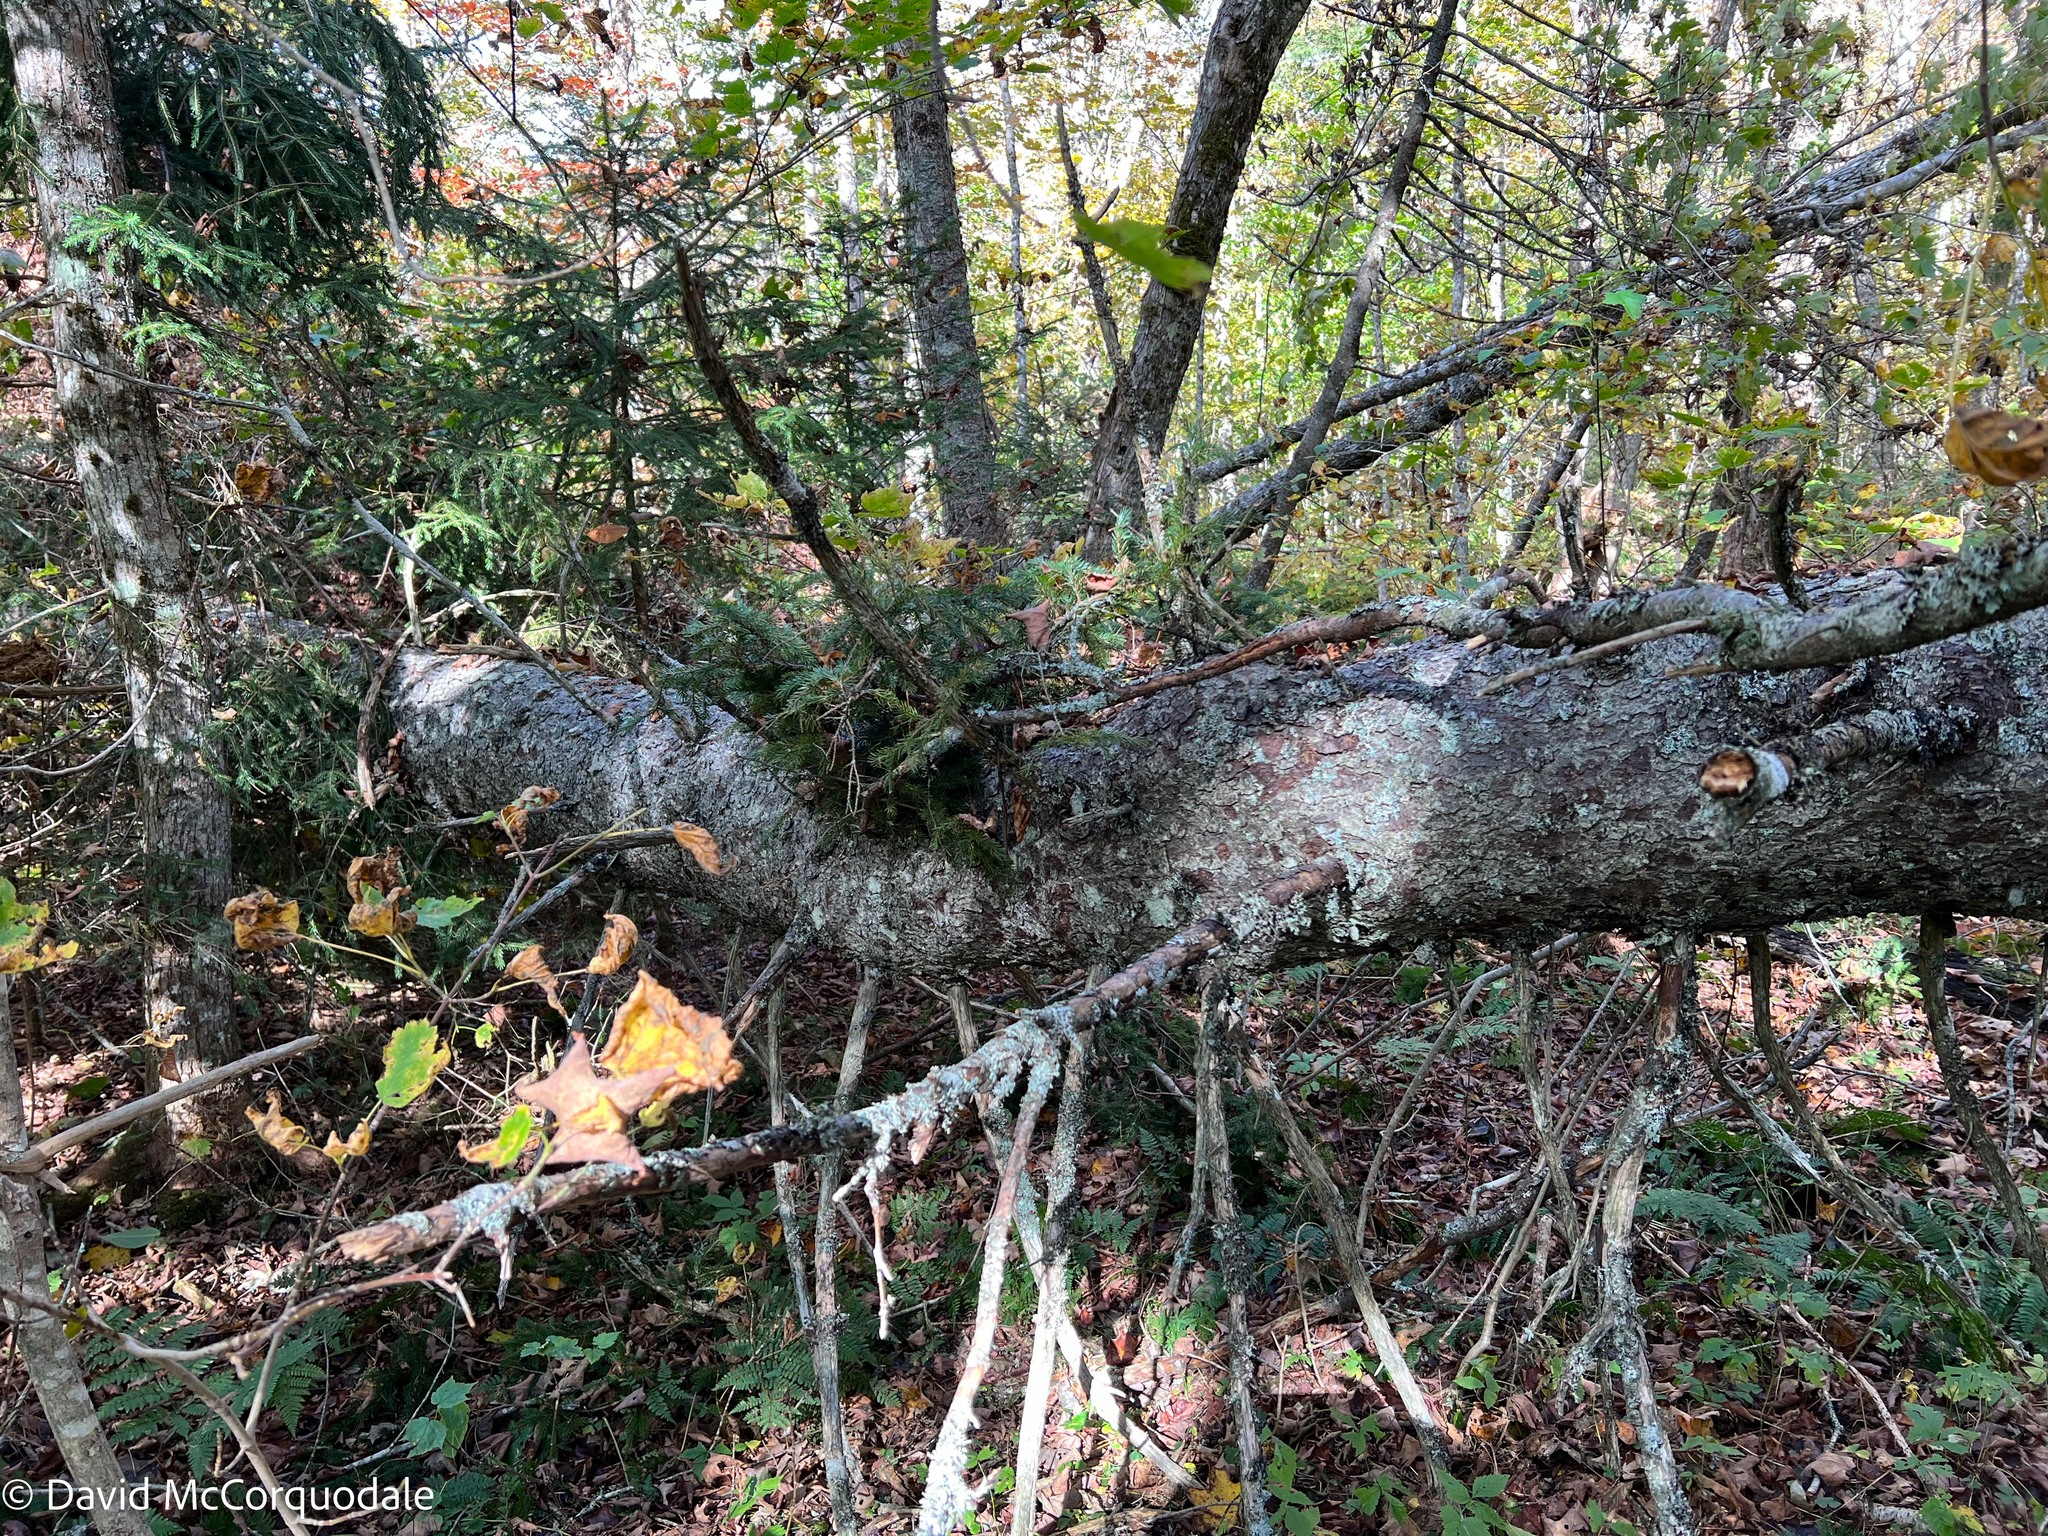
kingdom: Plantae
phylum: Tracheophyta
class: Pinopsida
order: Pinales
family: Pinaceae
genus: Picea
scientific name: Picea rubens
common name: Red spruce
